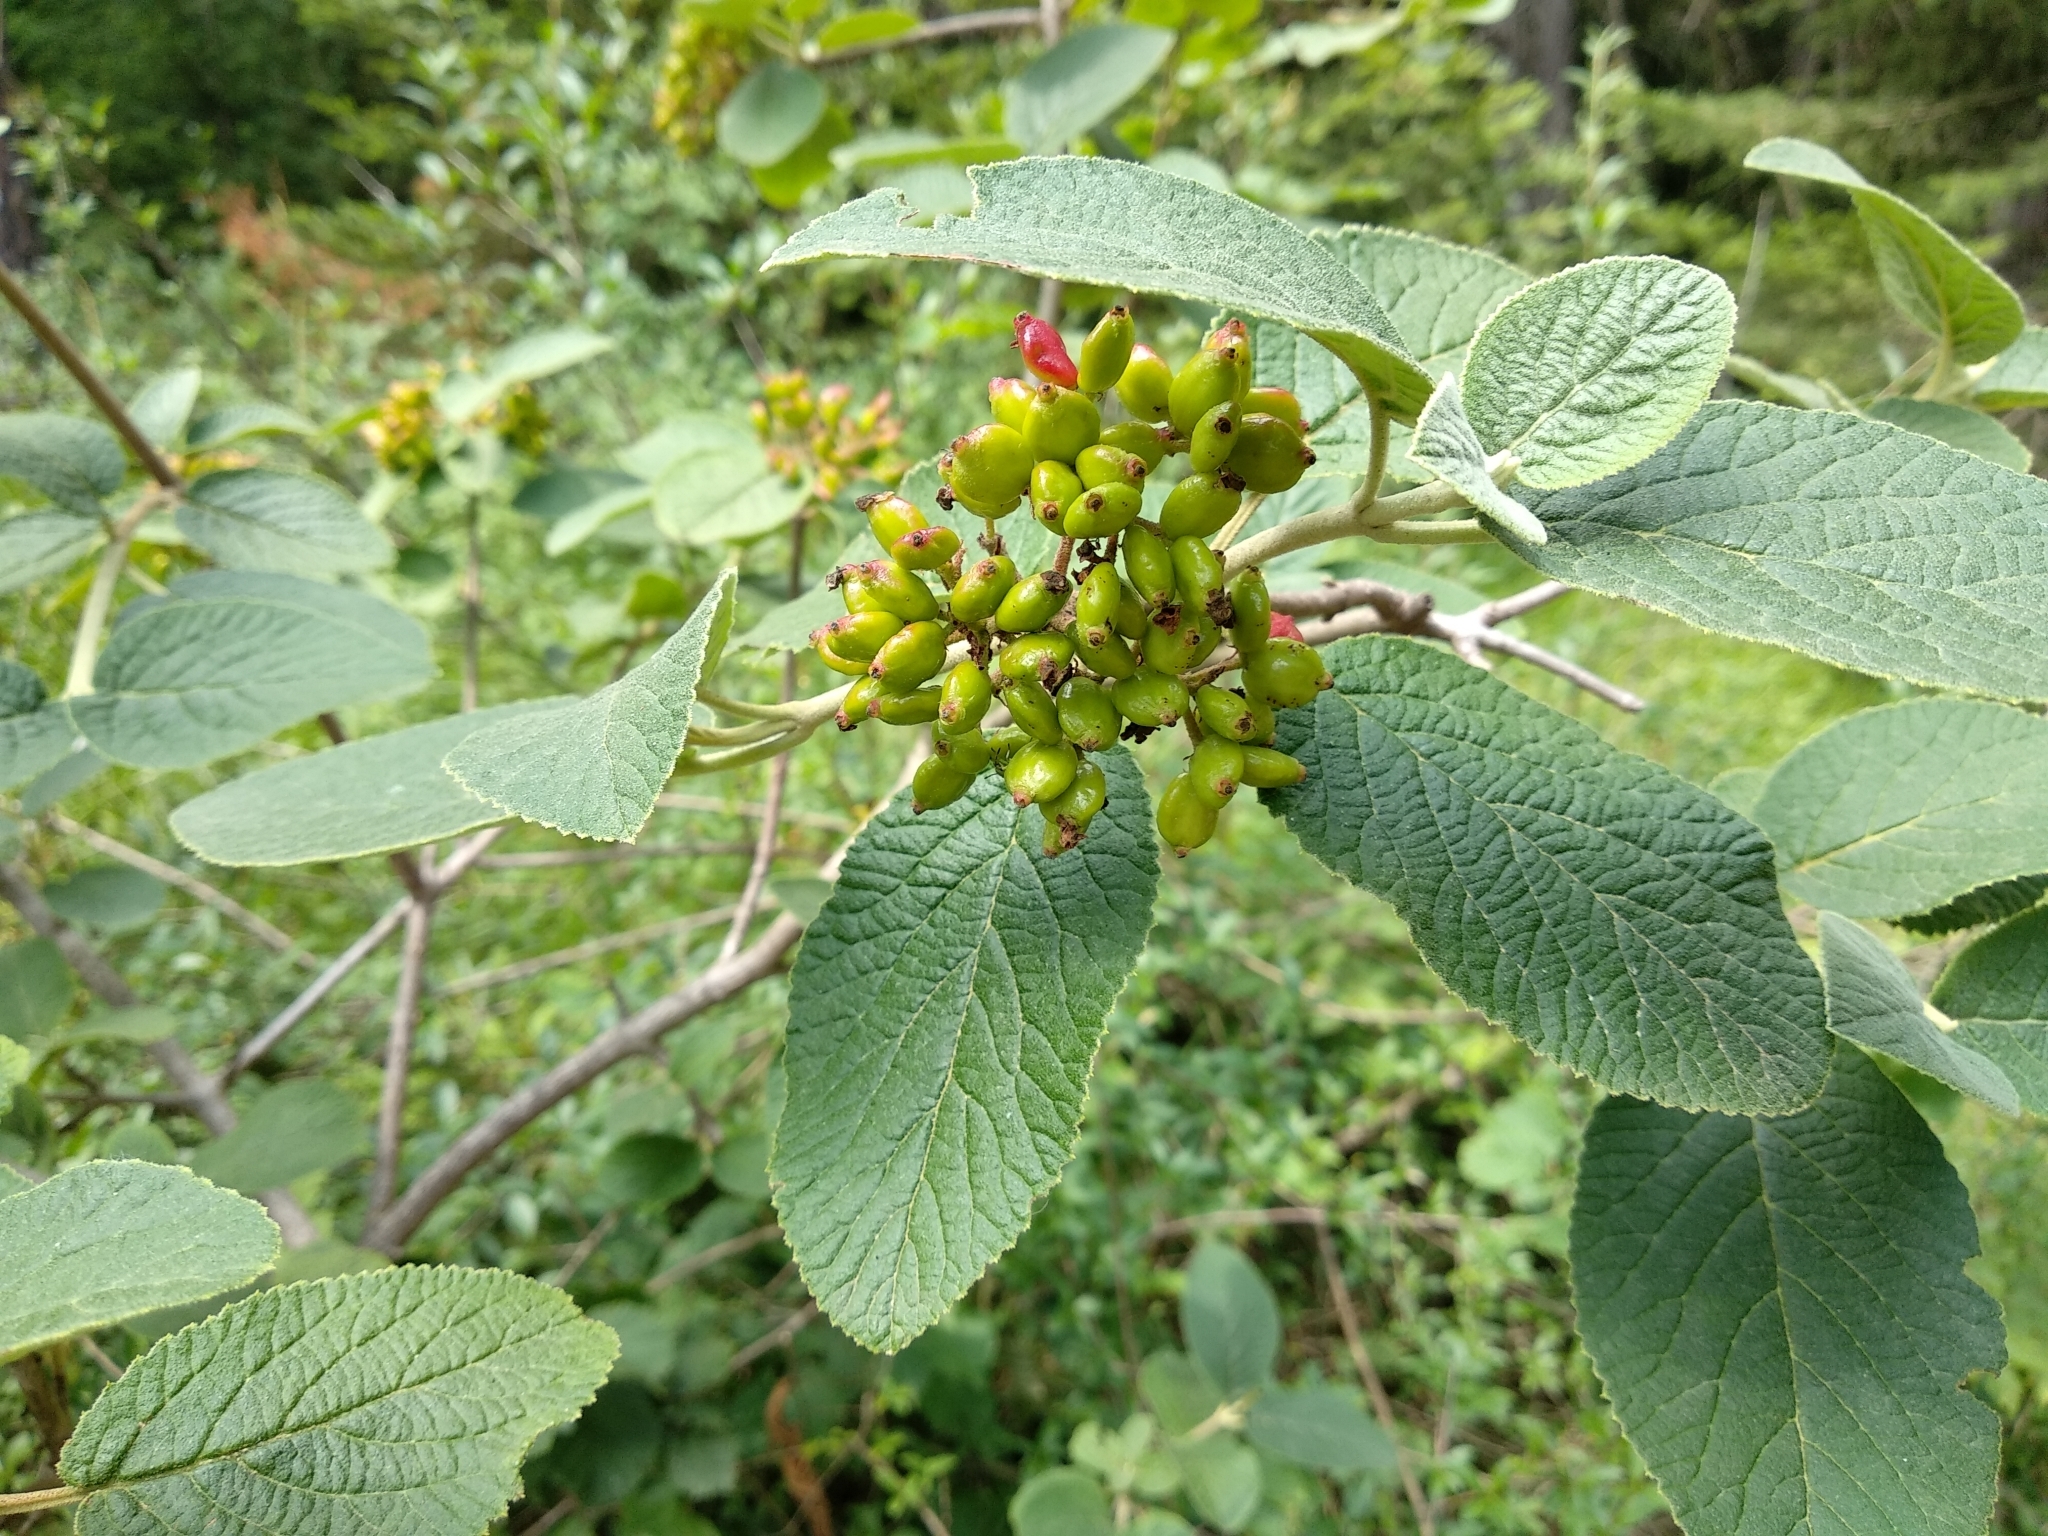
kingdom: Plantae
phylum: Tracheophyta
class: Magnoliopsida
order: Dipsacales
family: Viburnaceae
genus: Viburnum
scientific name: Viburnum lantana
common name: Wayfaring tree
